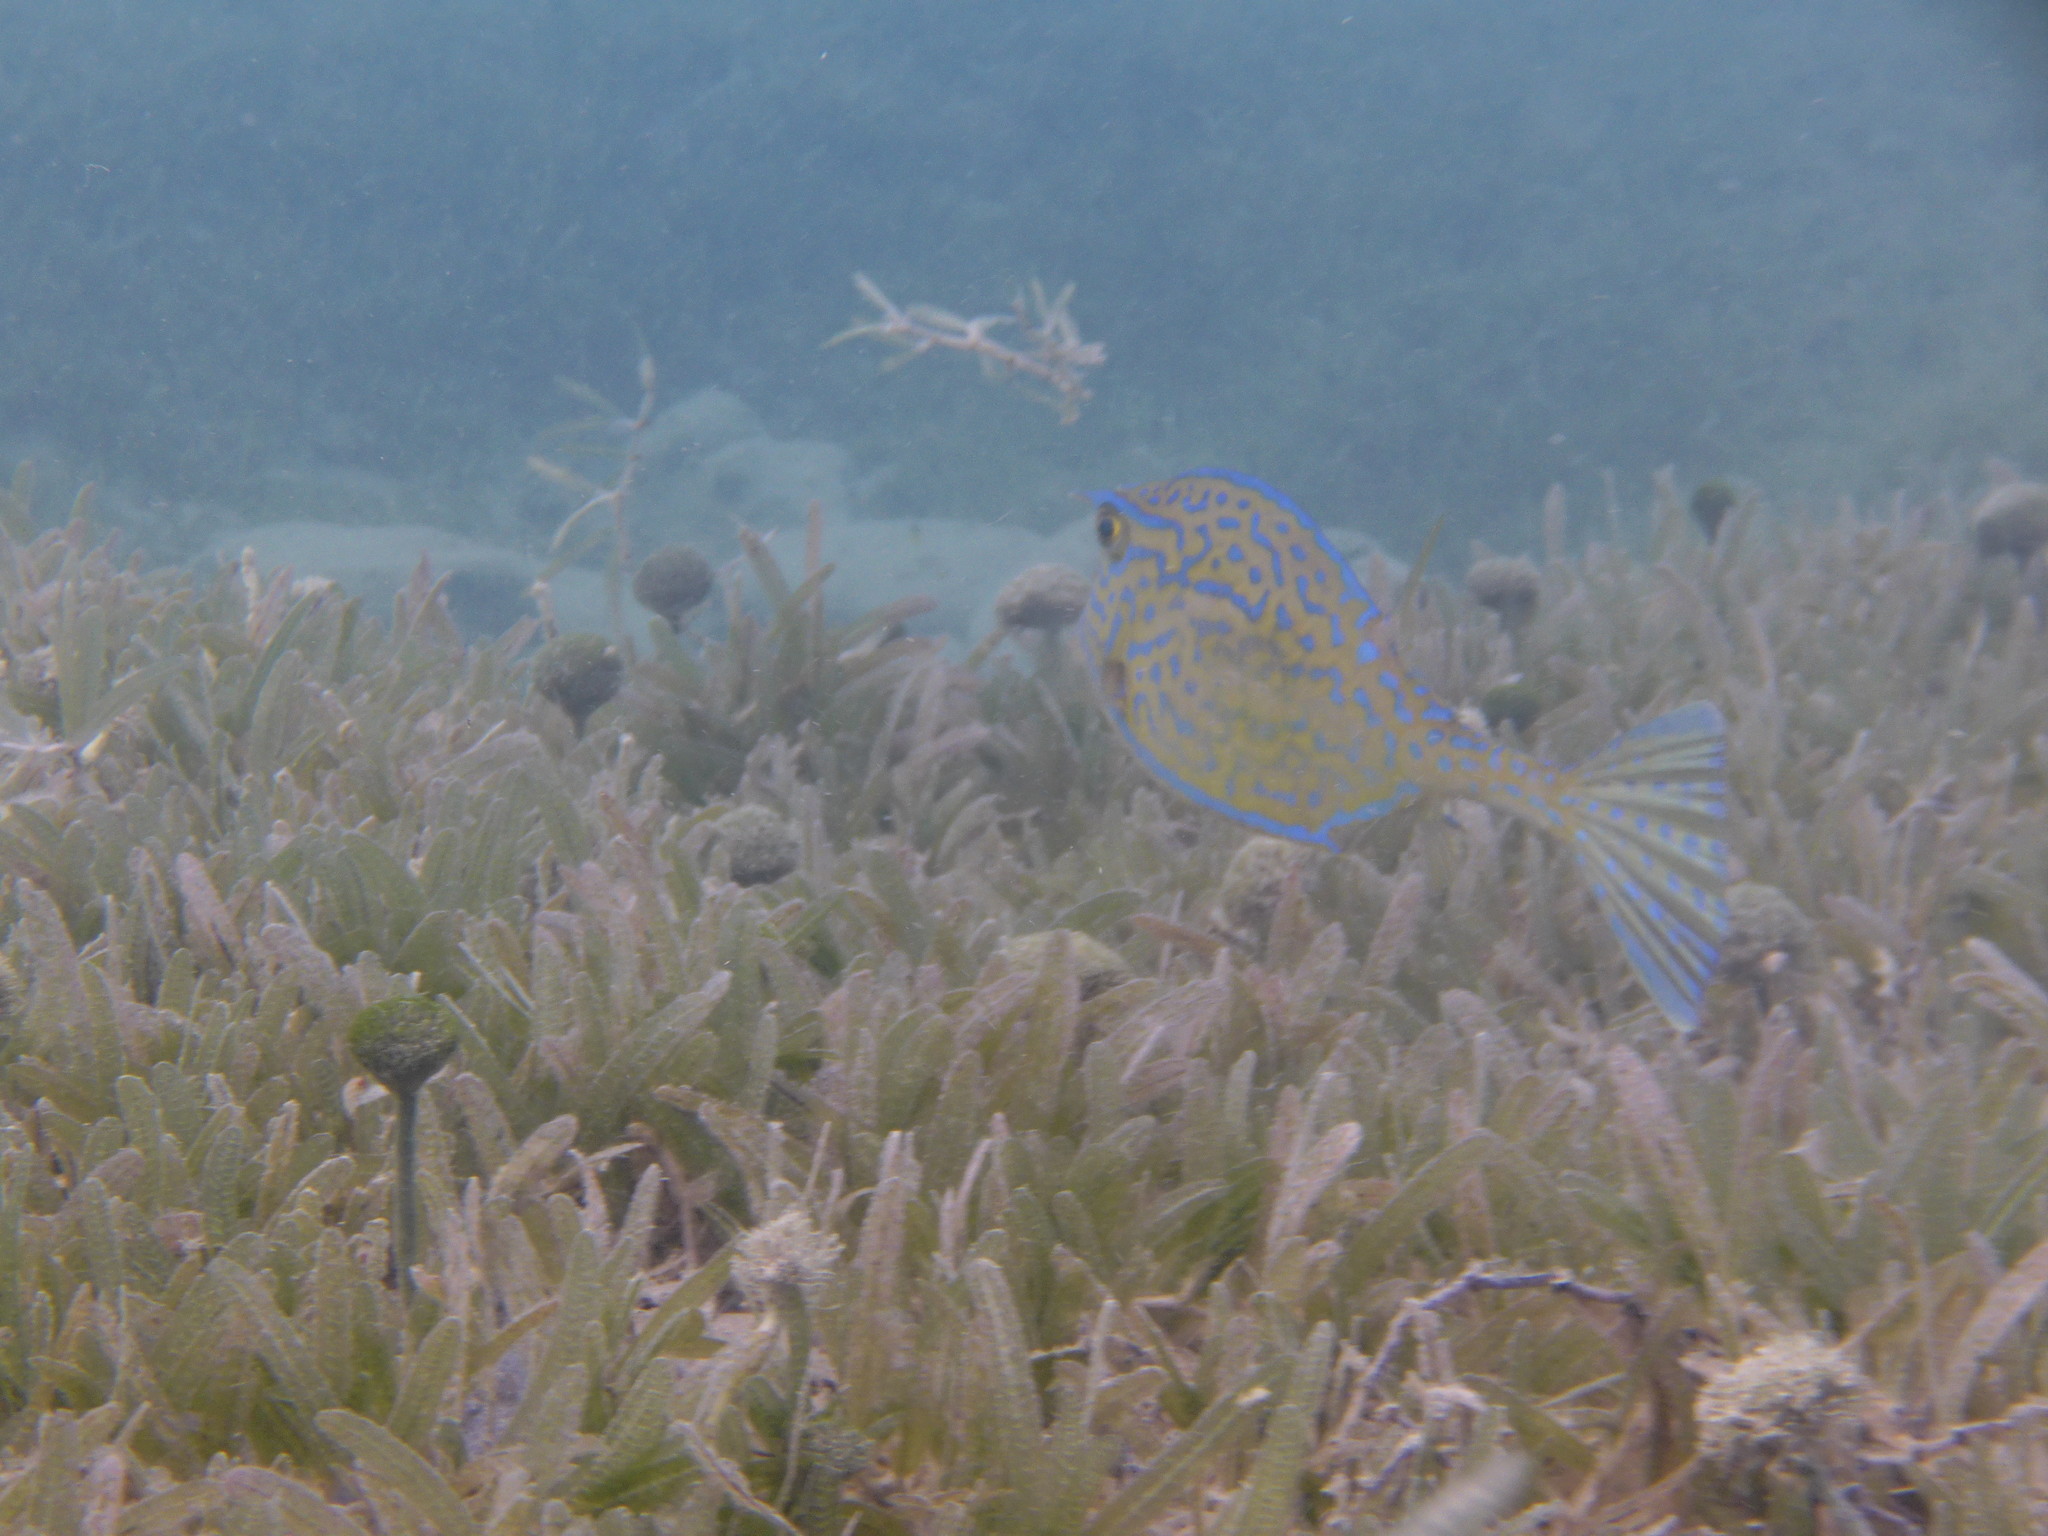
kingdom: Animalia
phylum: Chordata
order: Tetraodontiformes
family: Ostraciidae
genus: Acanthostracion
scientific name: Acanthostracion quadricornis
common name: Scrawled cowfish
